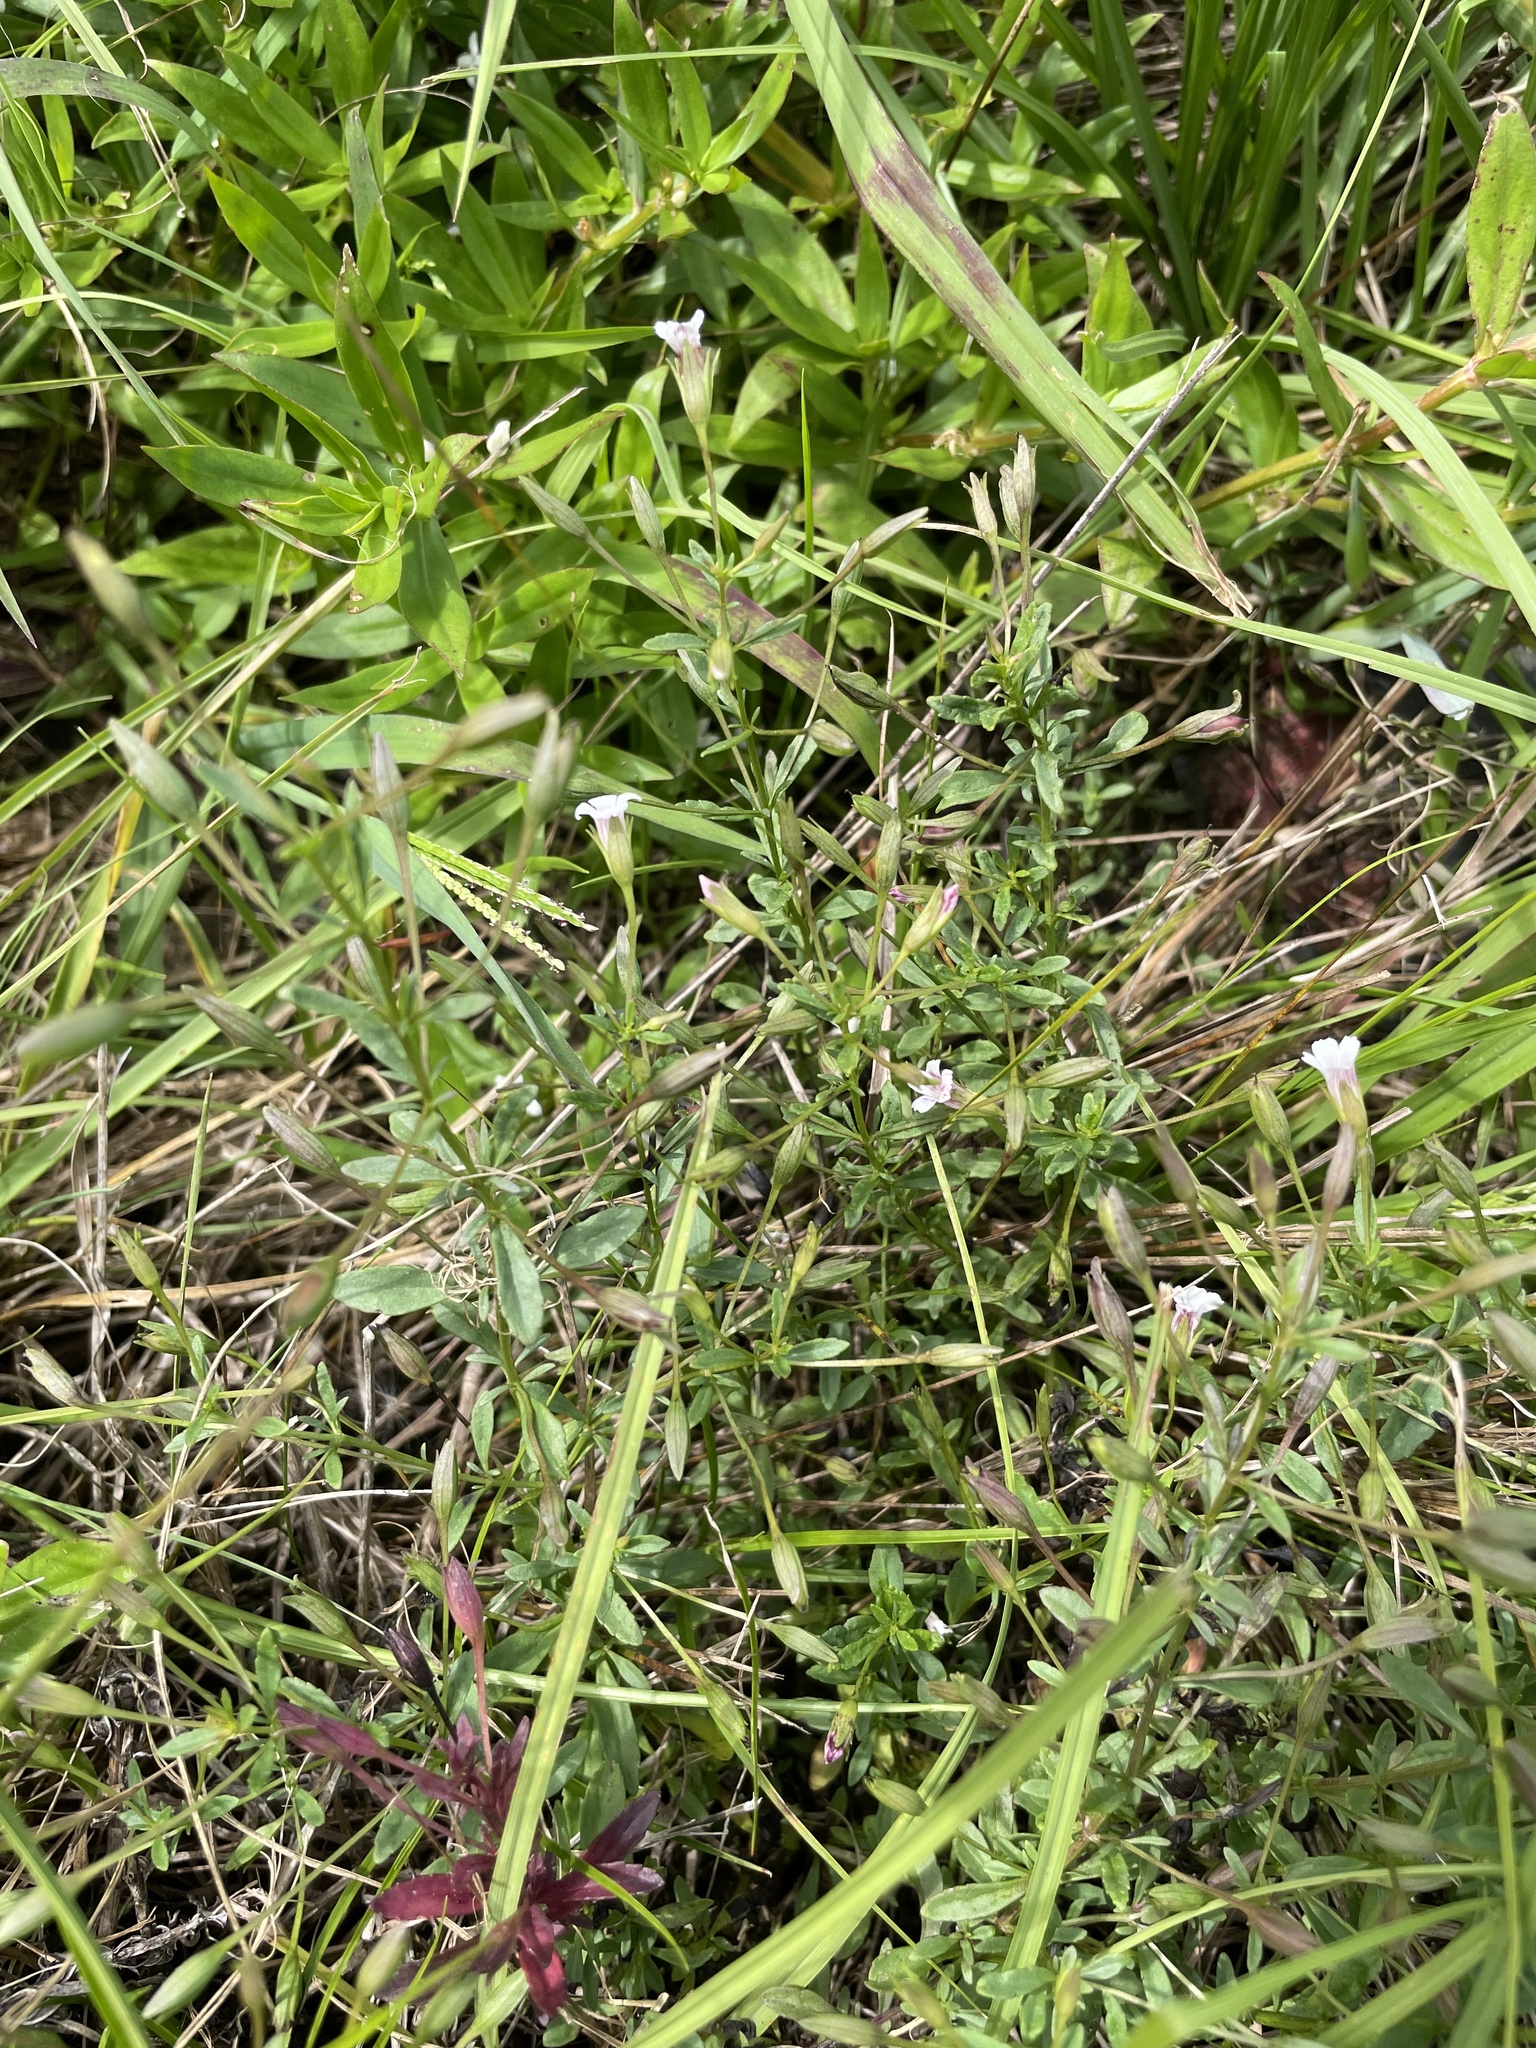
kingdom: Plantae
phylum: Tracheophyta
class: Magnoliopsida
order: Lamiales
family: Plantaginaceae
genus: Mecardonia
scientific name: Mecardonia acuminata
